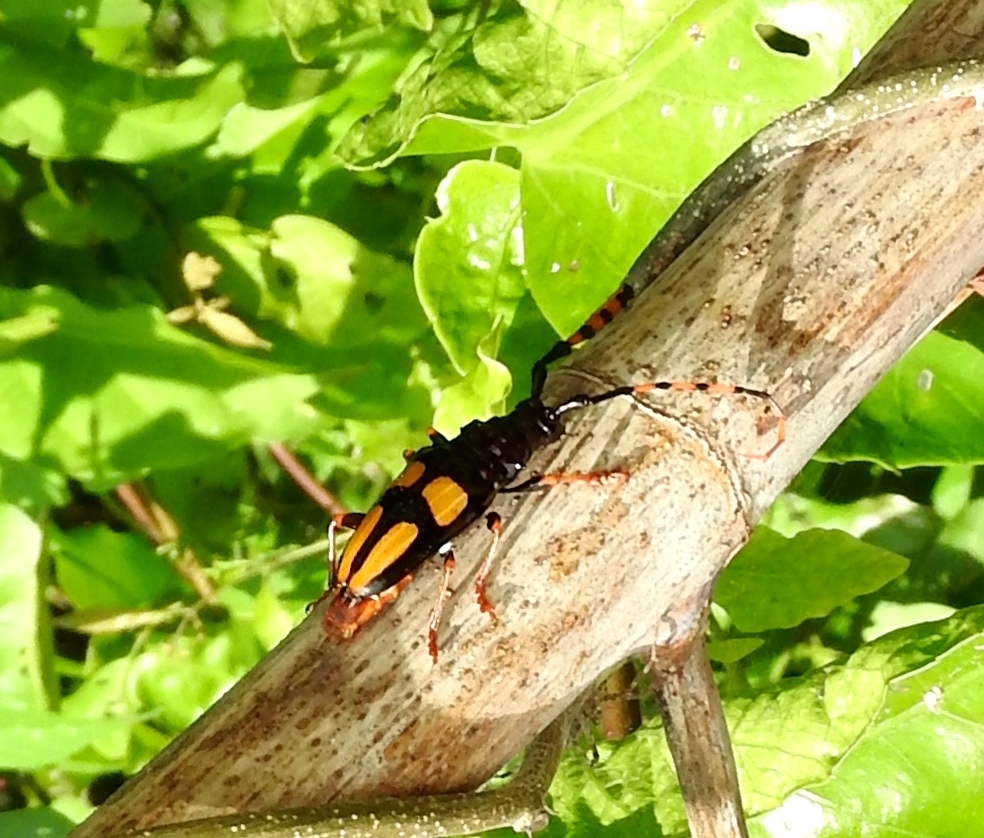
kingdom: Animalia
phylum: Arthropoda
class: Insecta
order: Coleoptera
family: Cerambycidae
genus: Trachyderes
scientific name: Trachyderes mandibularis
